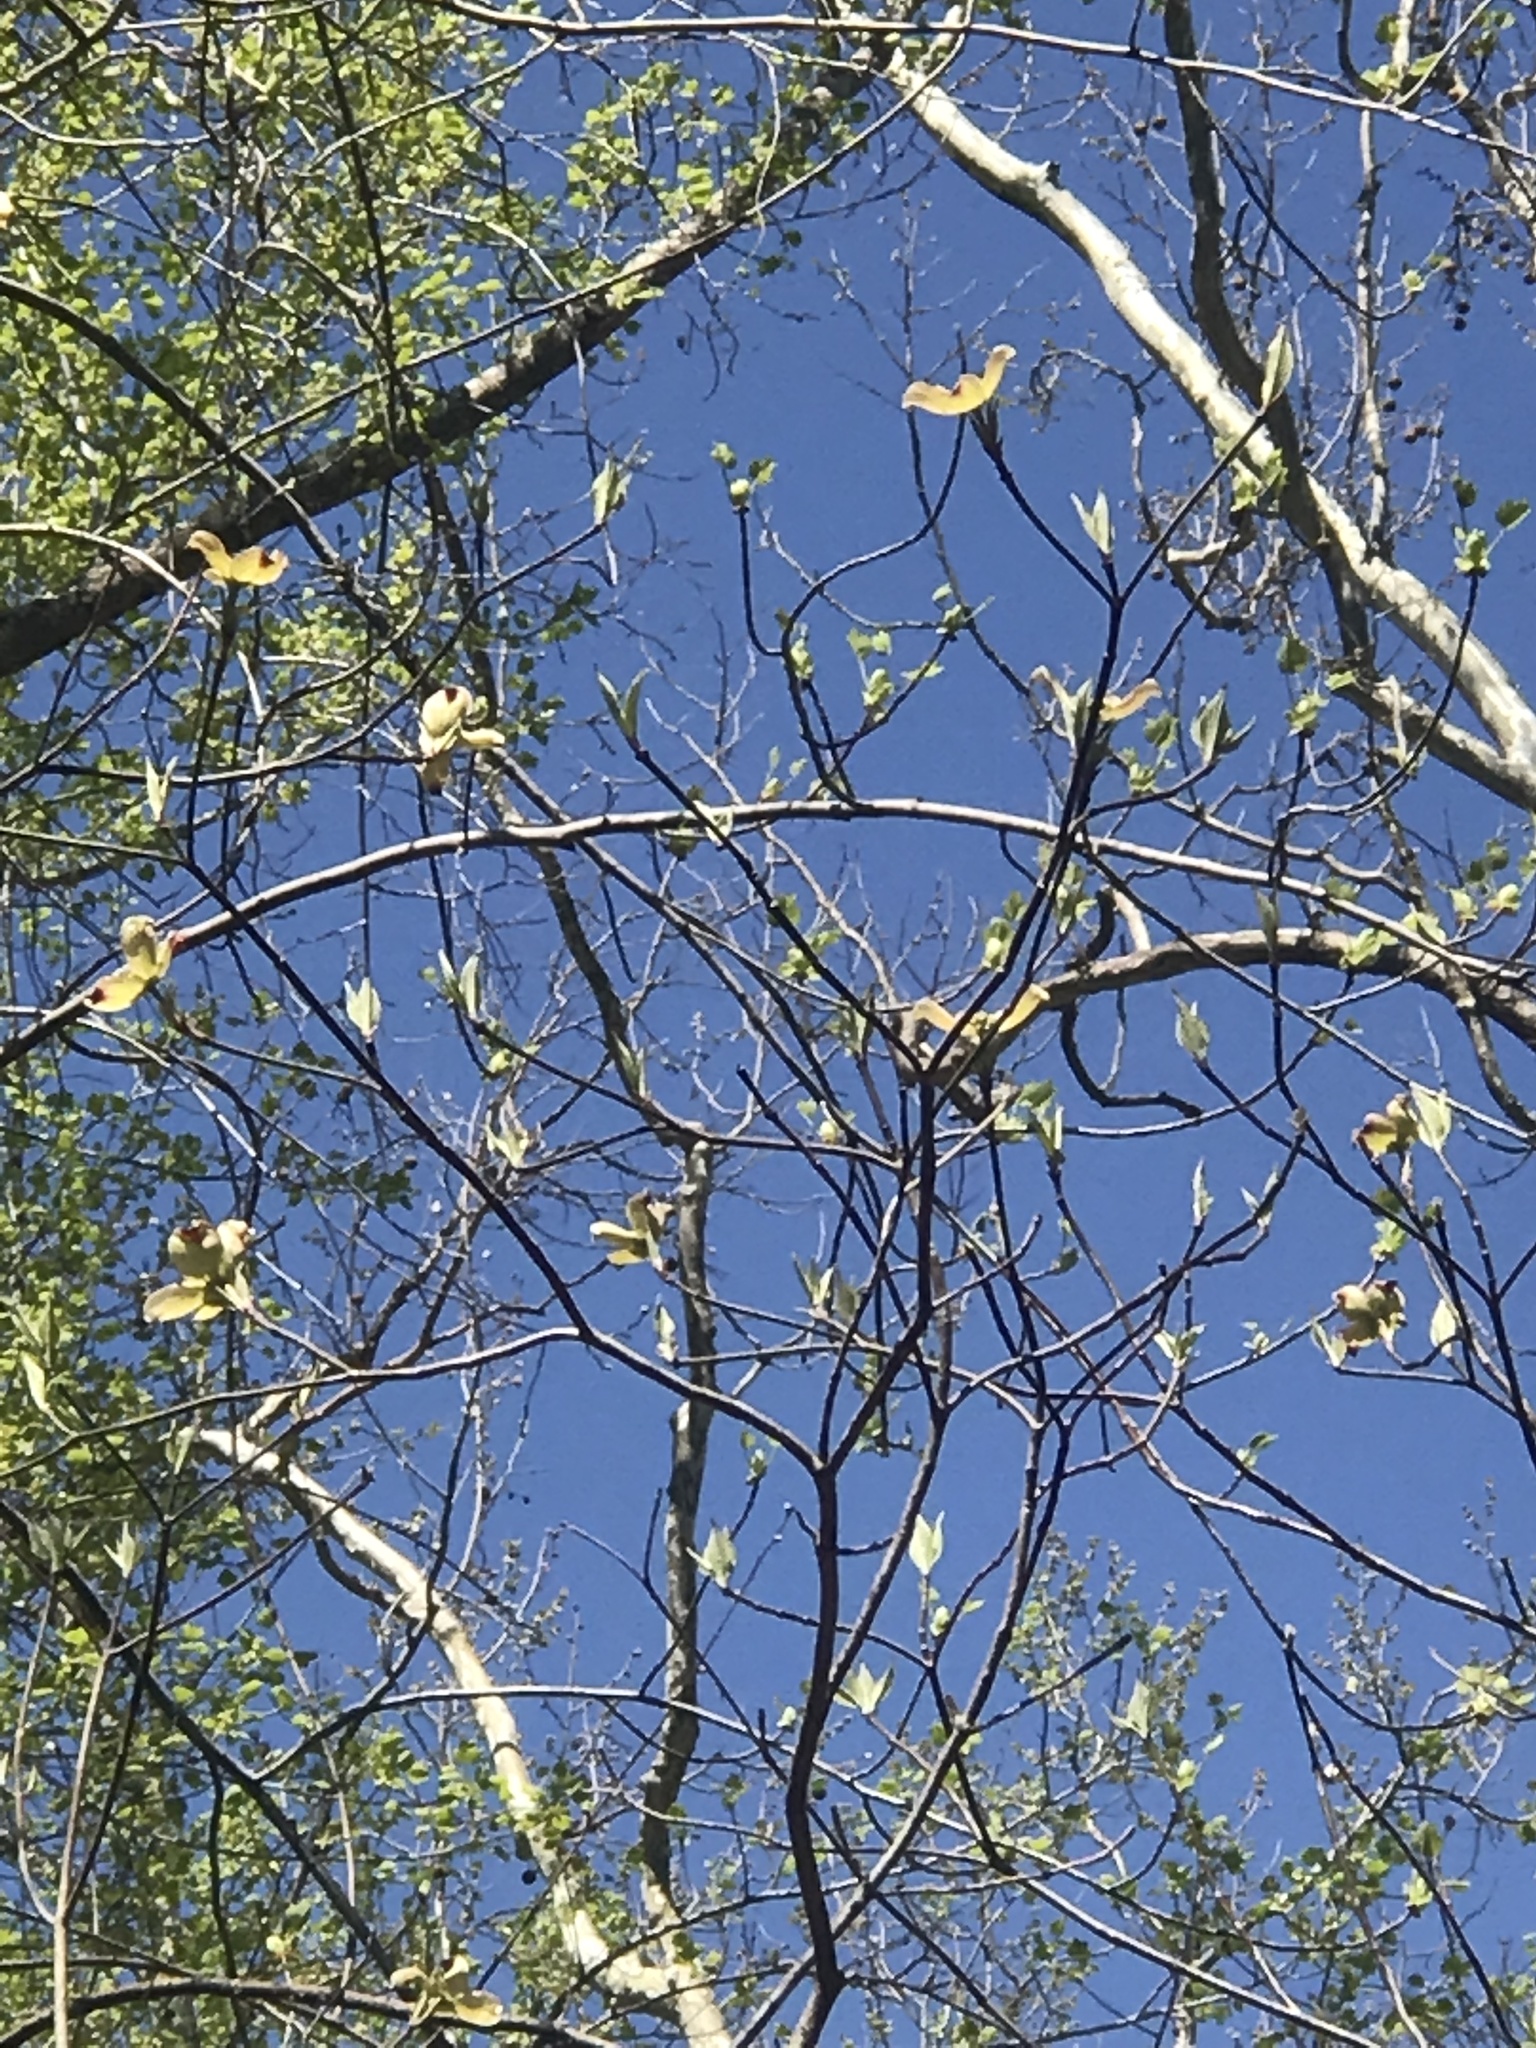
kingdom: Plantae
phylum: Tracheophyta
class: Magnoliopsida
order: Cornales
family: Cornaceae
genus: Cornus
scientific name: Cornus florida
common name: Flowering dogwood
